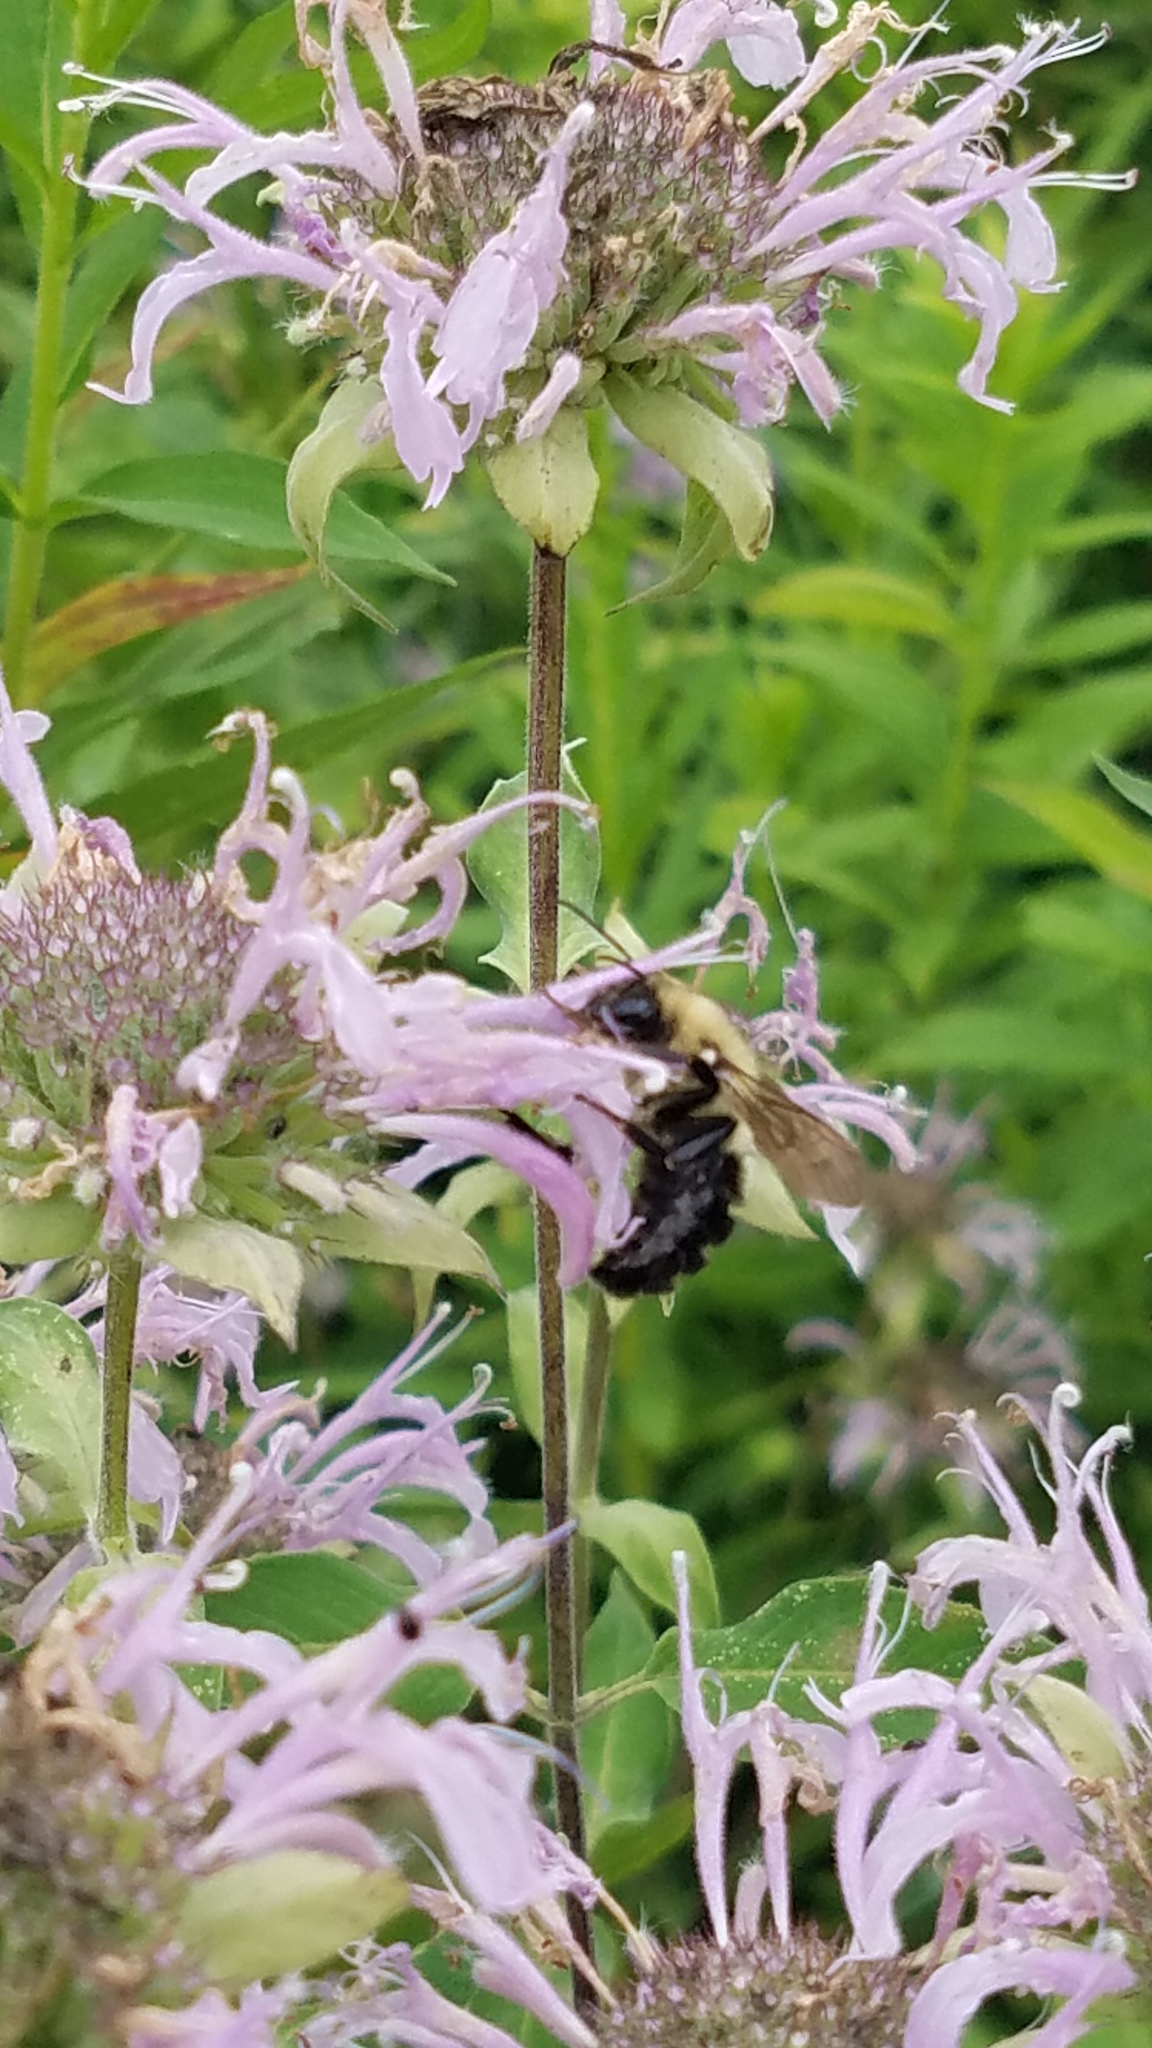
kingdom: Animalia
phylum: Arthropoda
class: Insecta
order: Hymenoptera
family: Apidae
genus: Bombus
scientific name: Bombus impatiens
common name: Common eastern bumble bee
